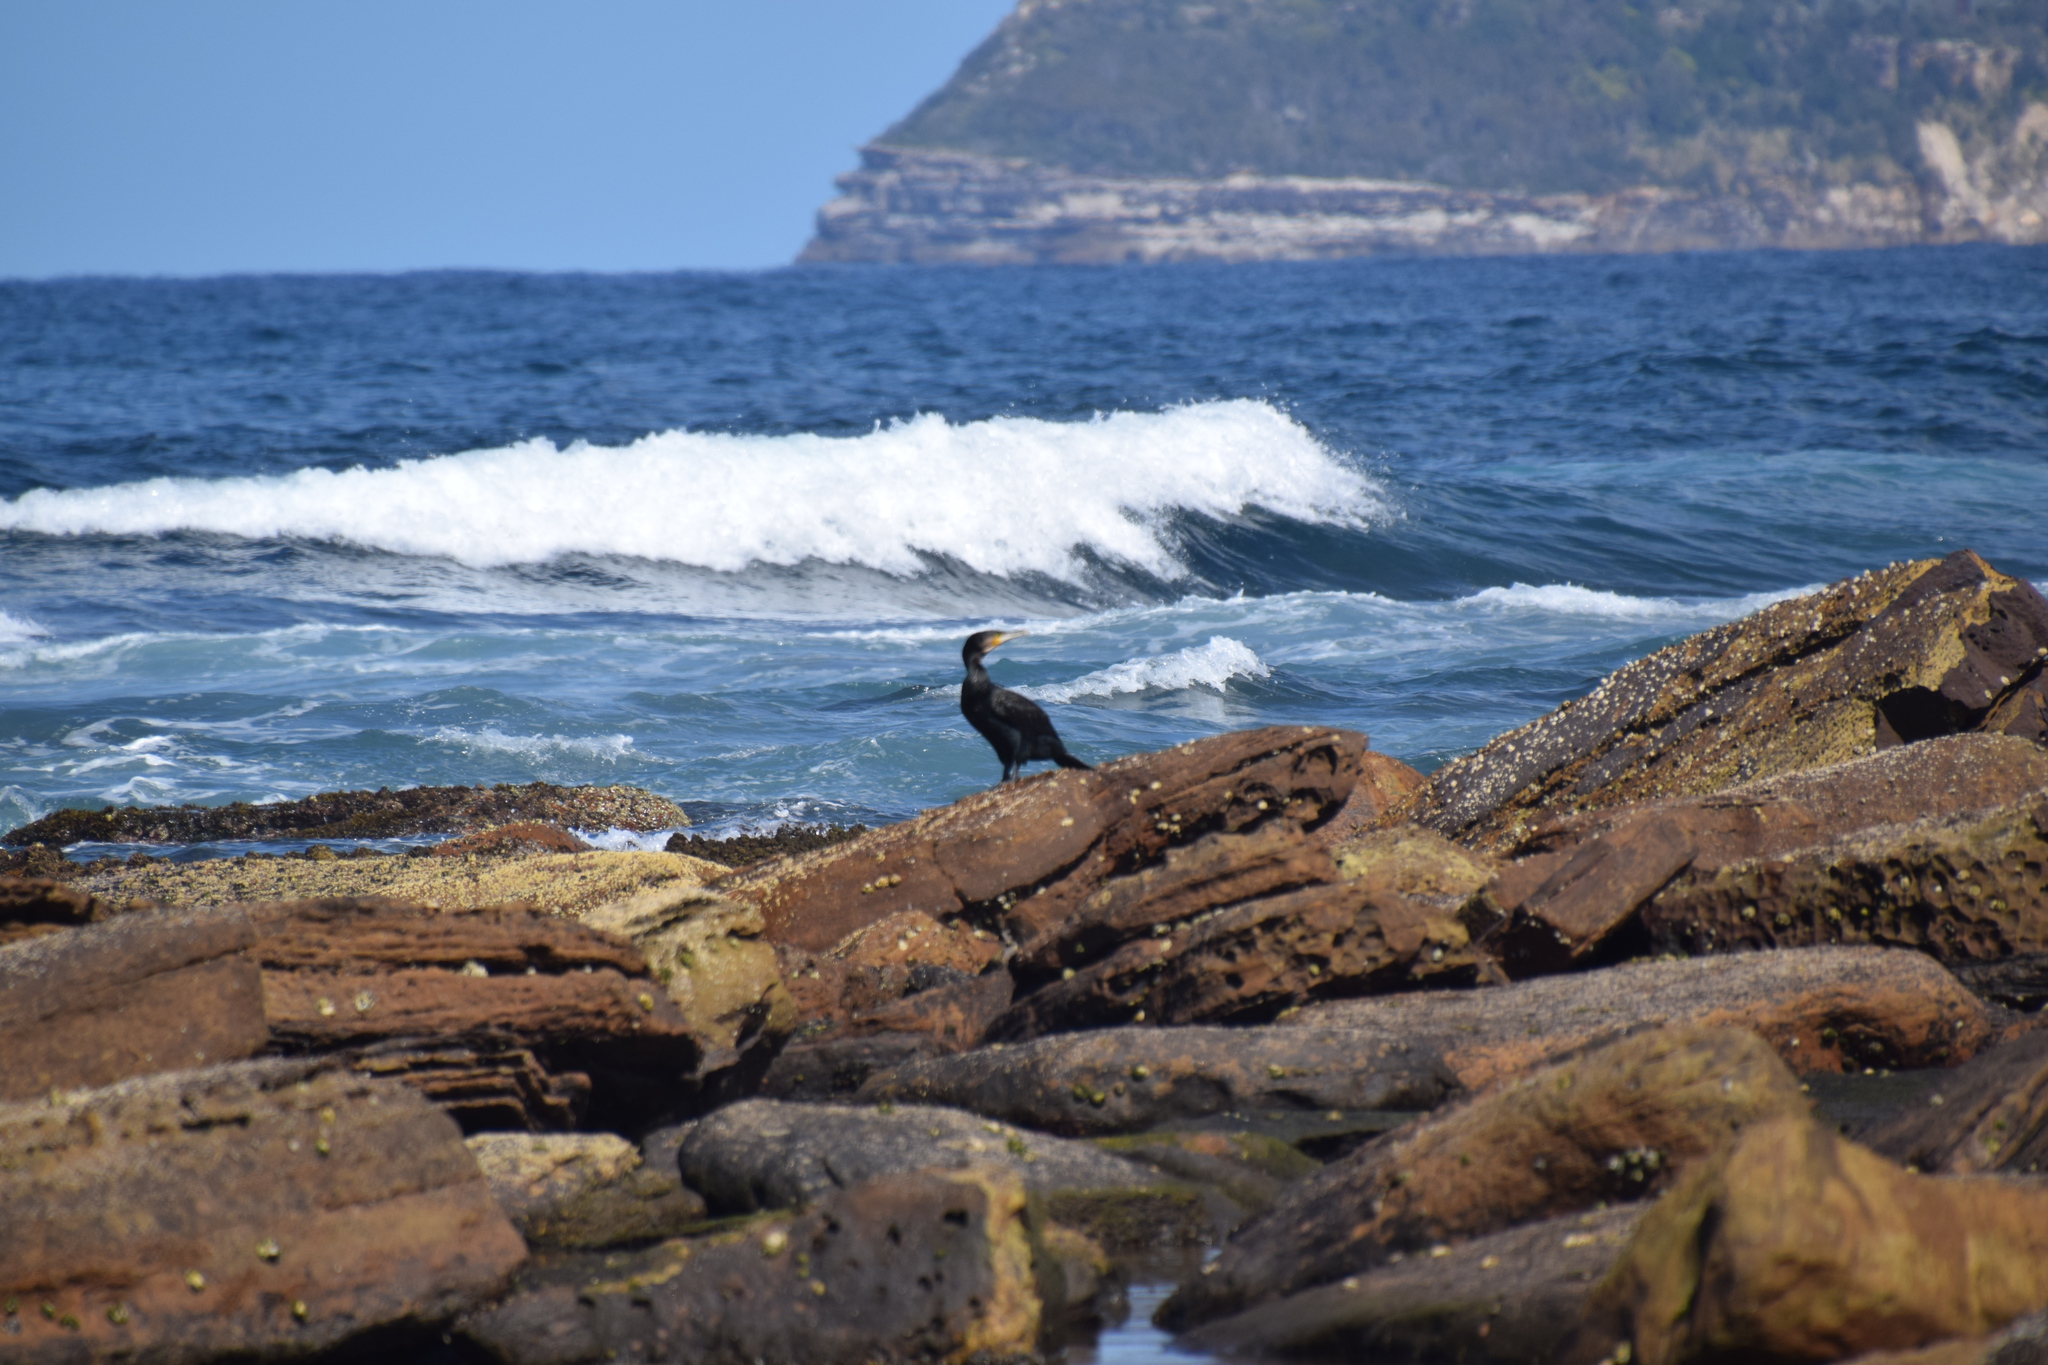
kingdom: Animalia
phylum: Chordata
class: Aves
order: Suliformes
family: Phalacrocoracidae
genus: Phalacrocorax
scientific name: Phalacrocorax carbo
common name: Great cormorant
